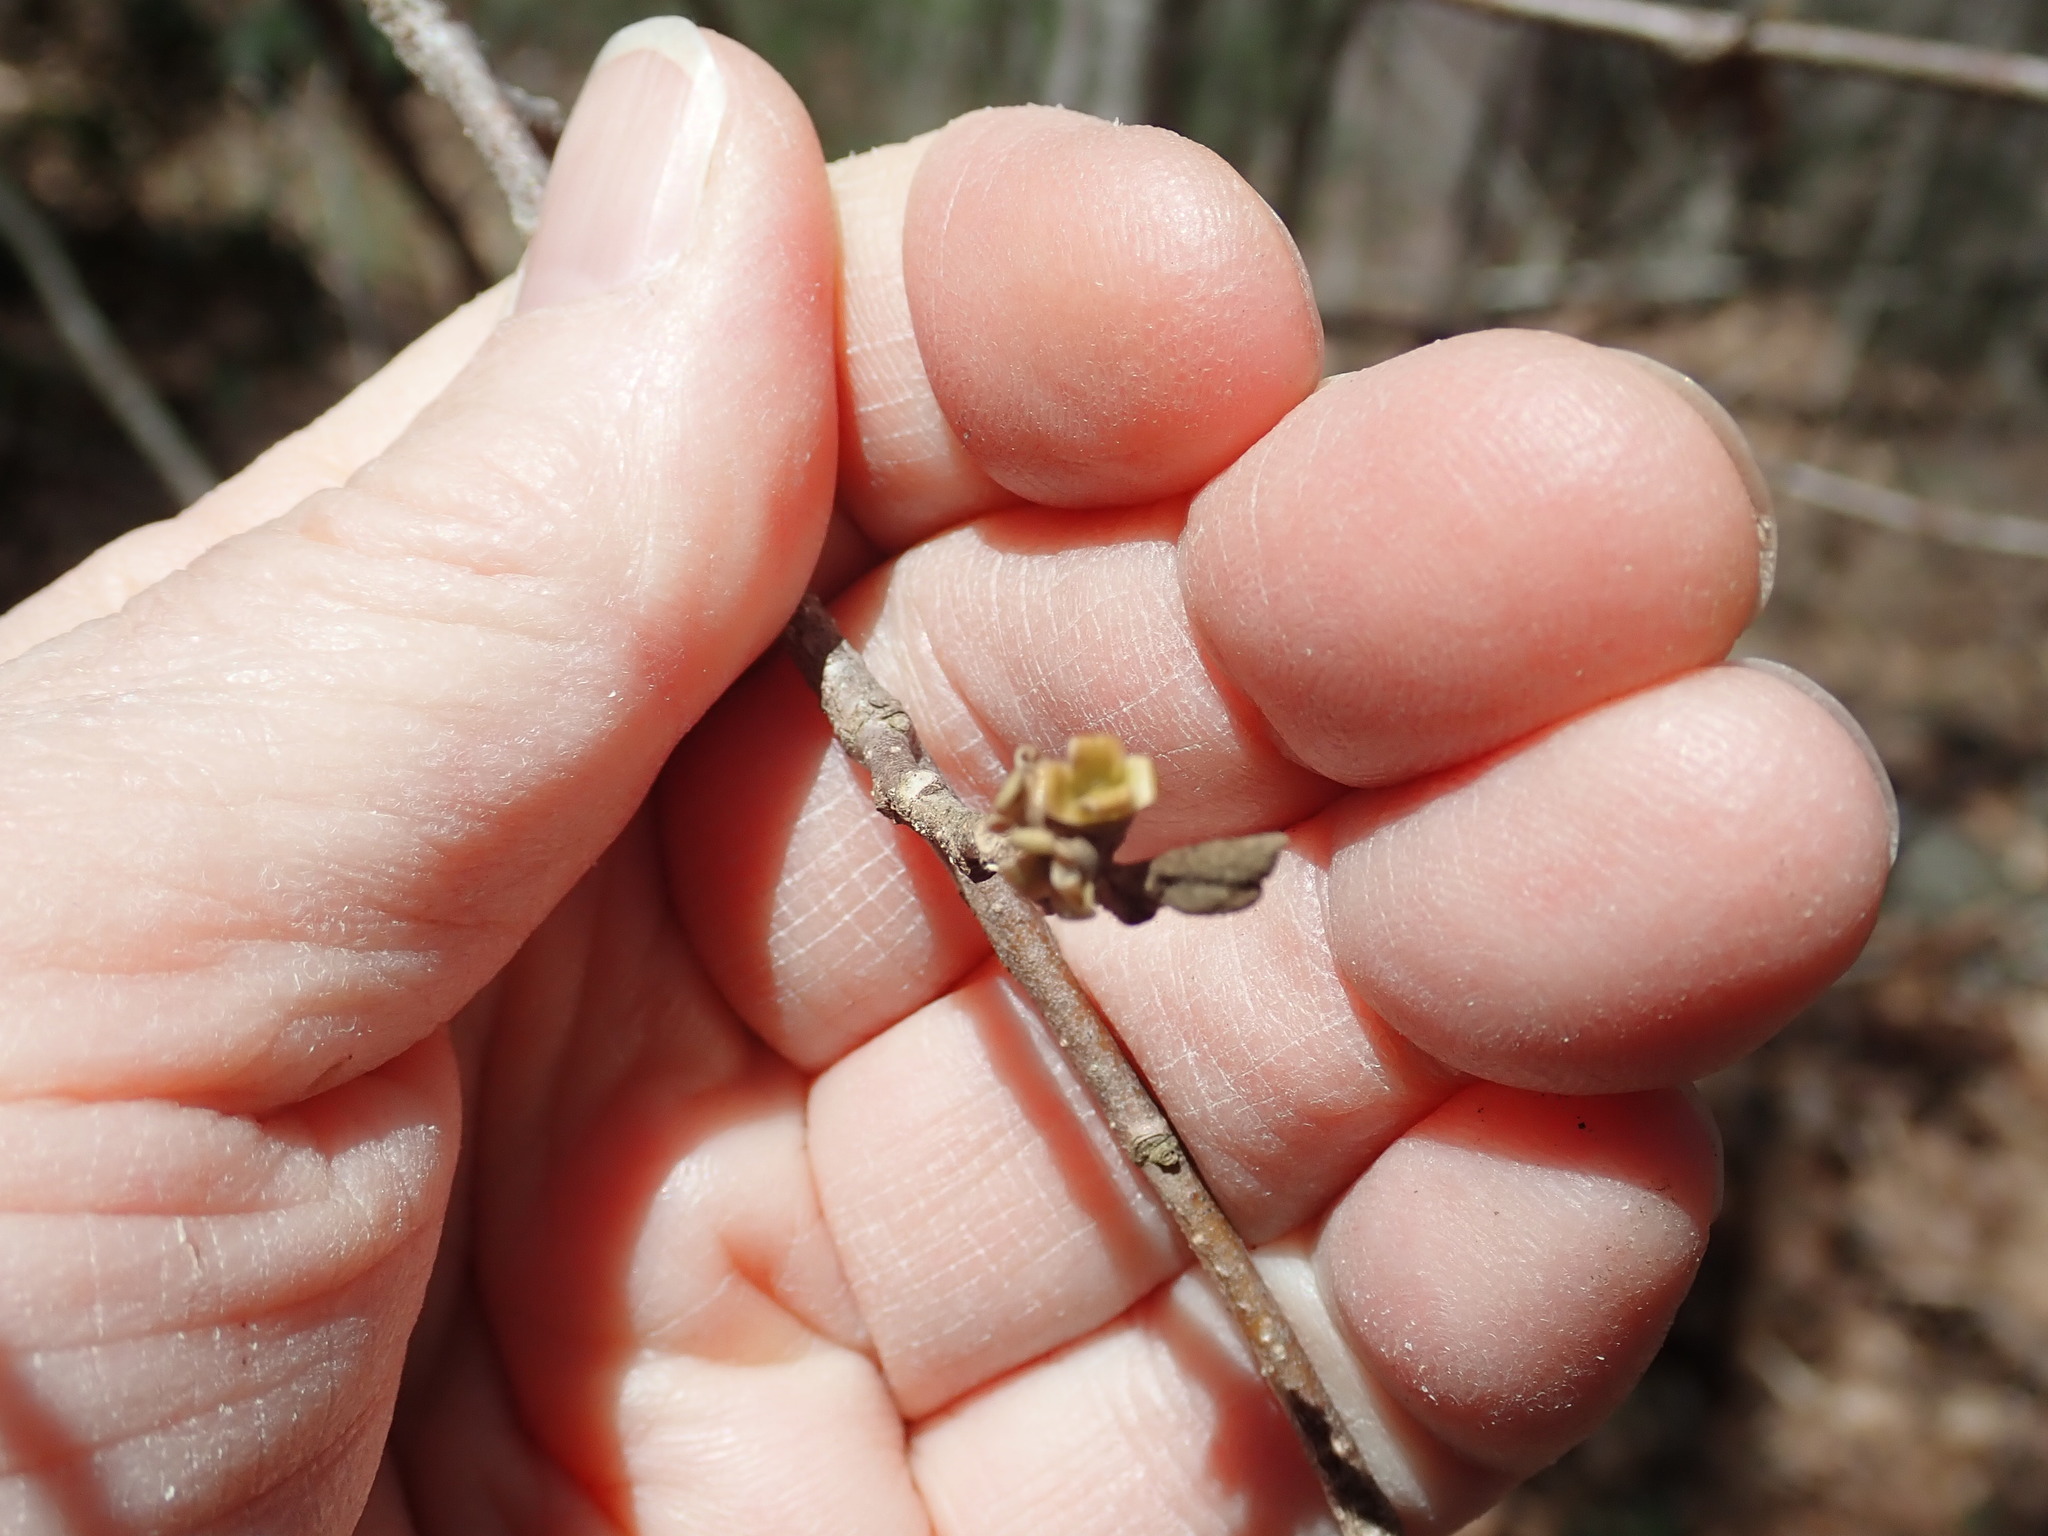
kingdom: Plantae
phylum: Tracheophyta
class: Magnoliopsida
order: Saxifragales
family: Hamamelidaceae
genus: Hamamelis
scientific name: Hamamelis virginiana
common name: Witch-hazel
